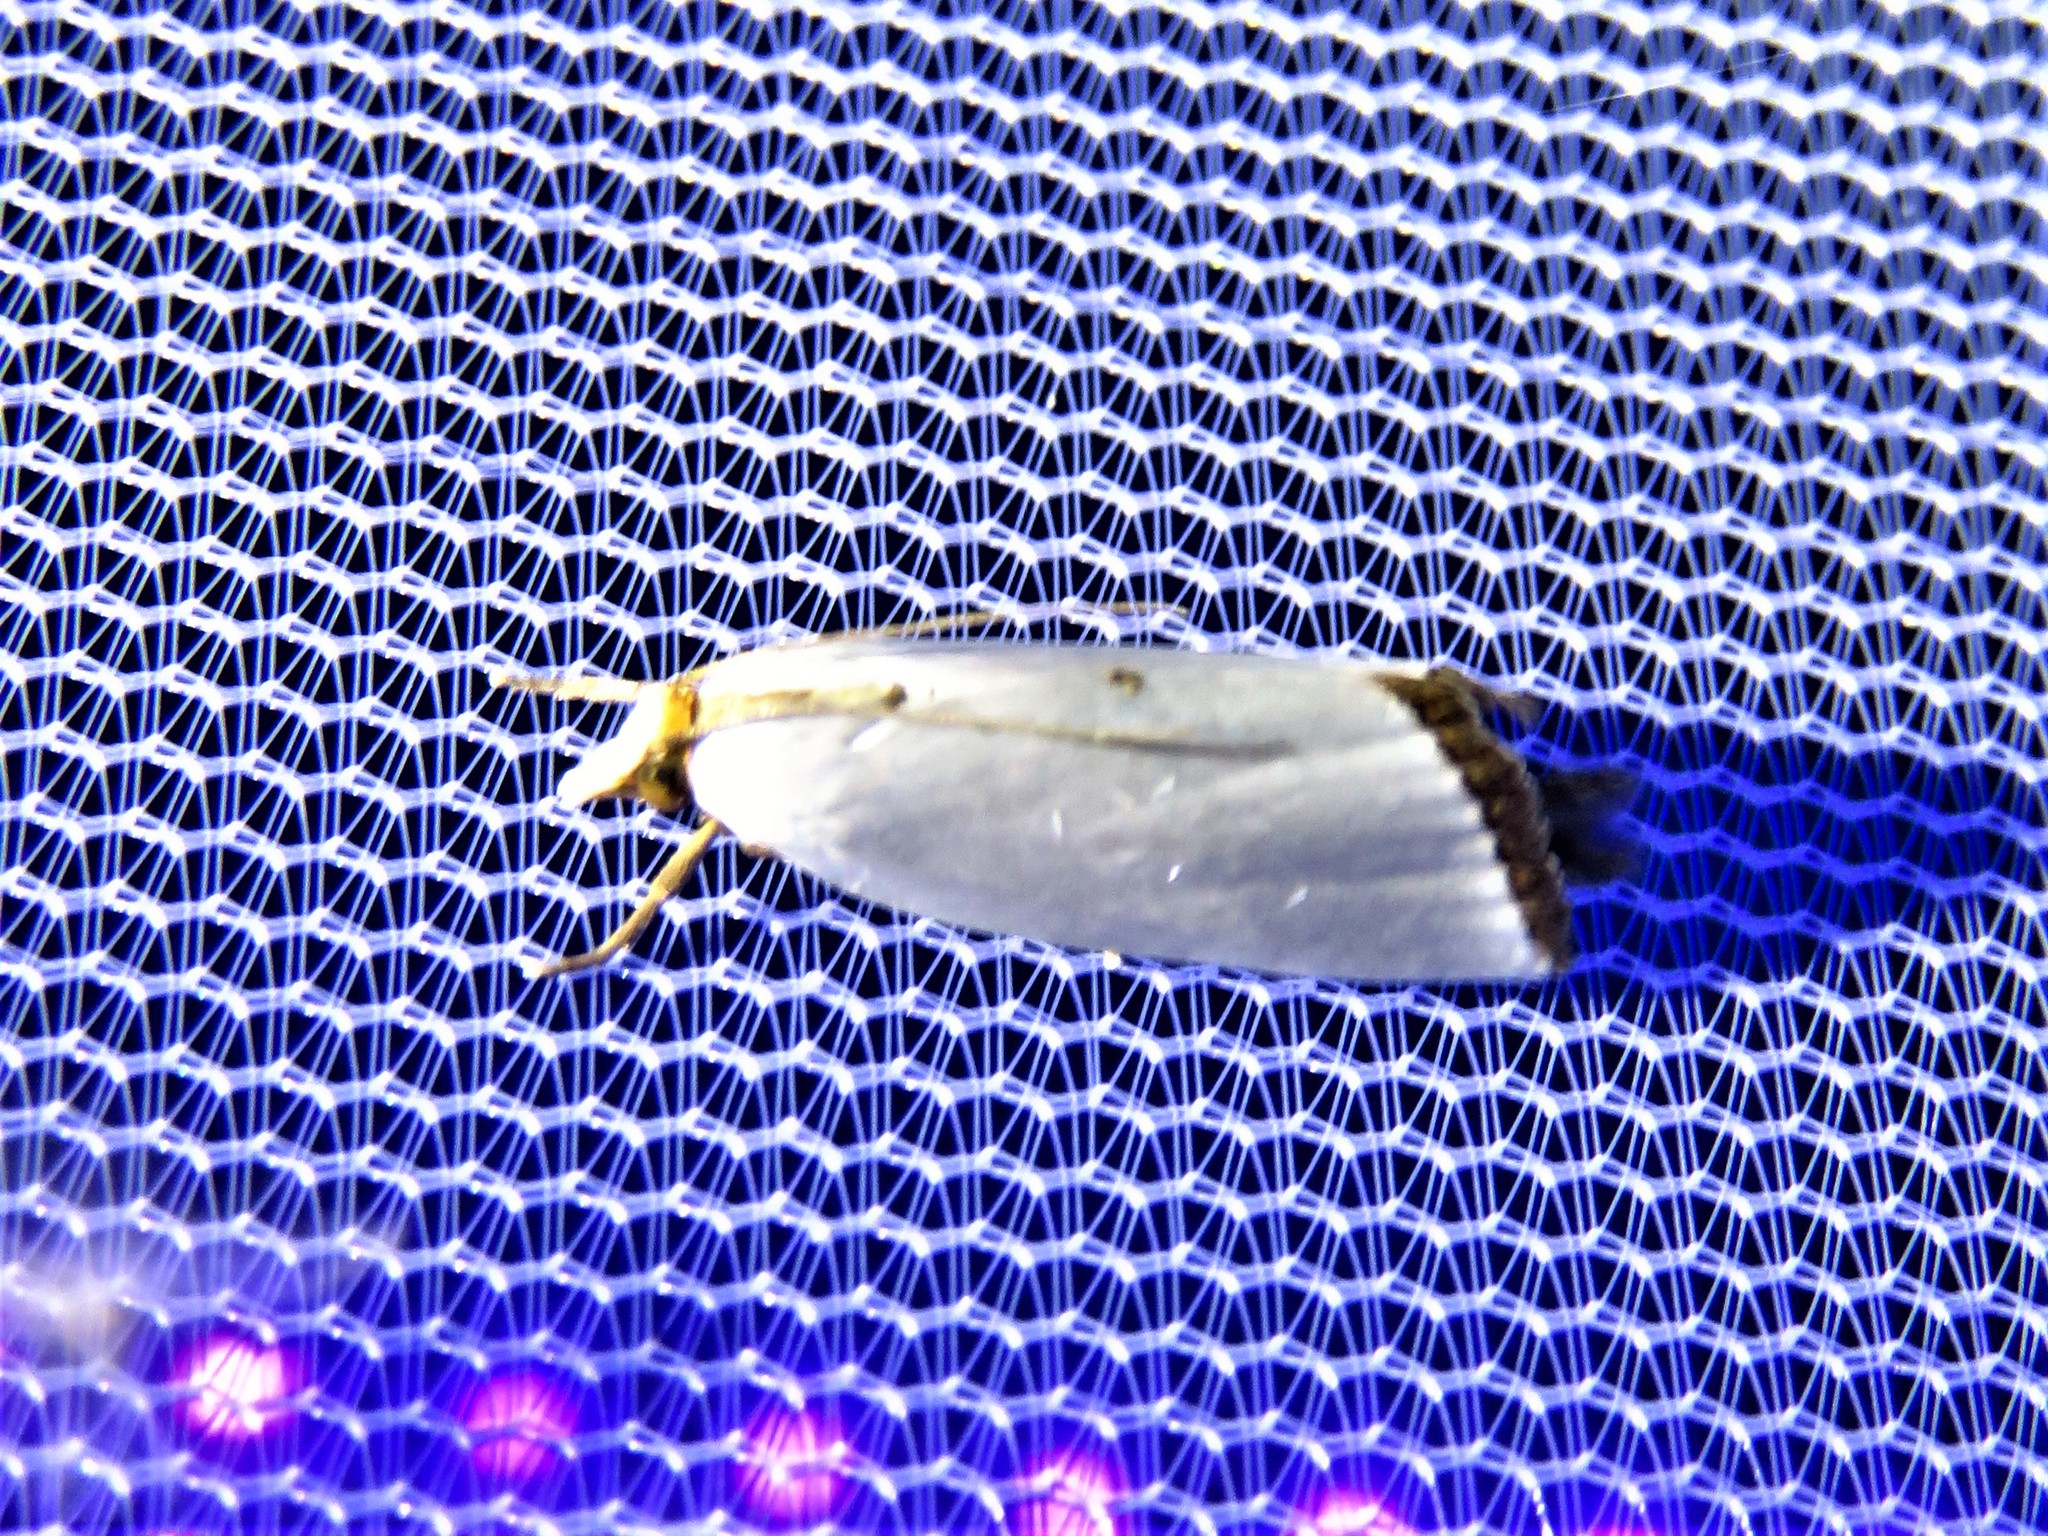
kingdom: Animalia
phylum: Arthropoda
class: Insecta
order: Lepidoptera
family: Crambidae
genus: Argyria
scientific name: Argyria nivalis
